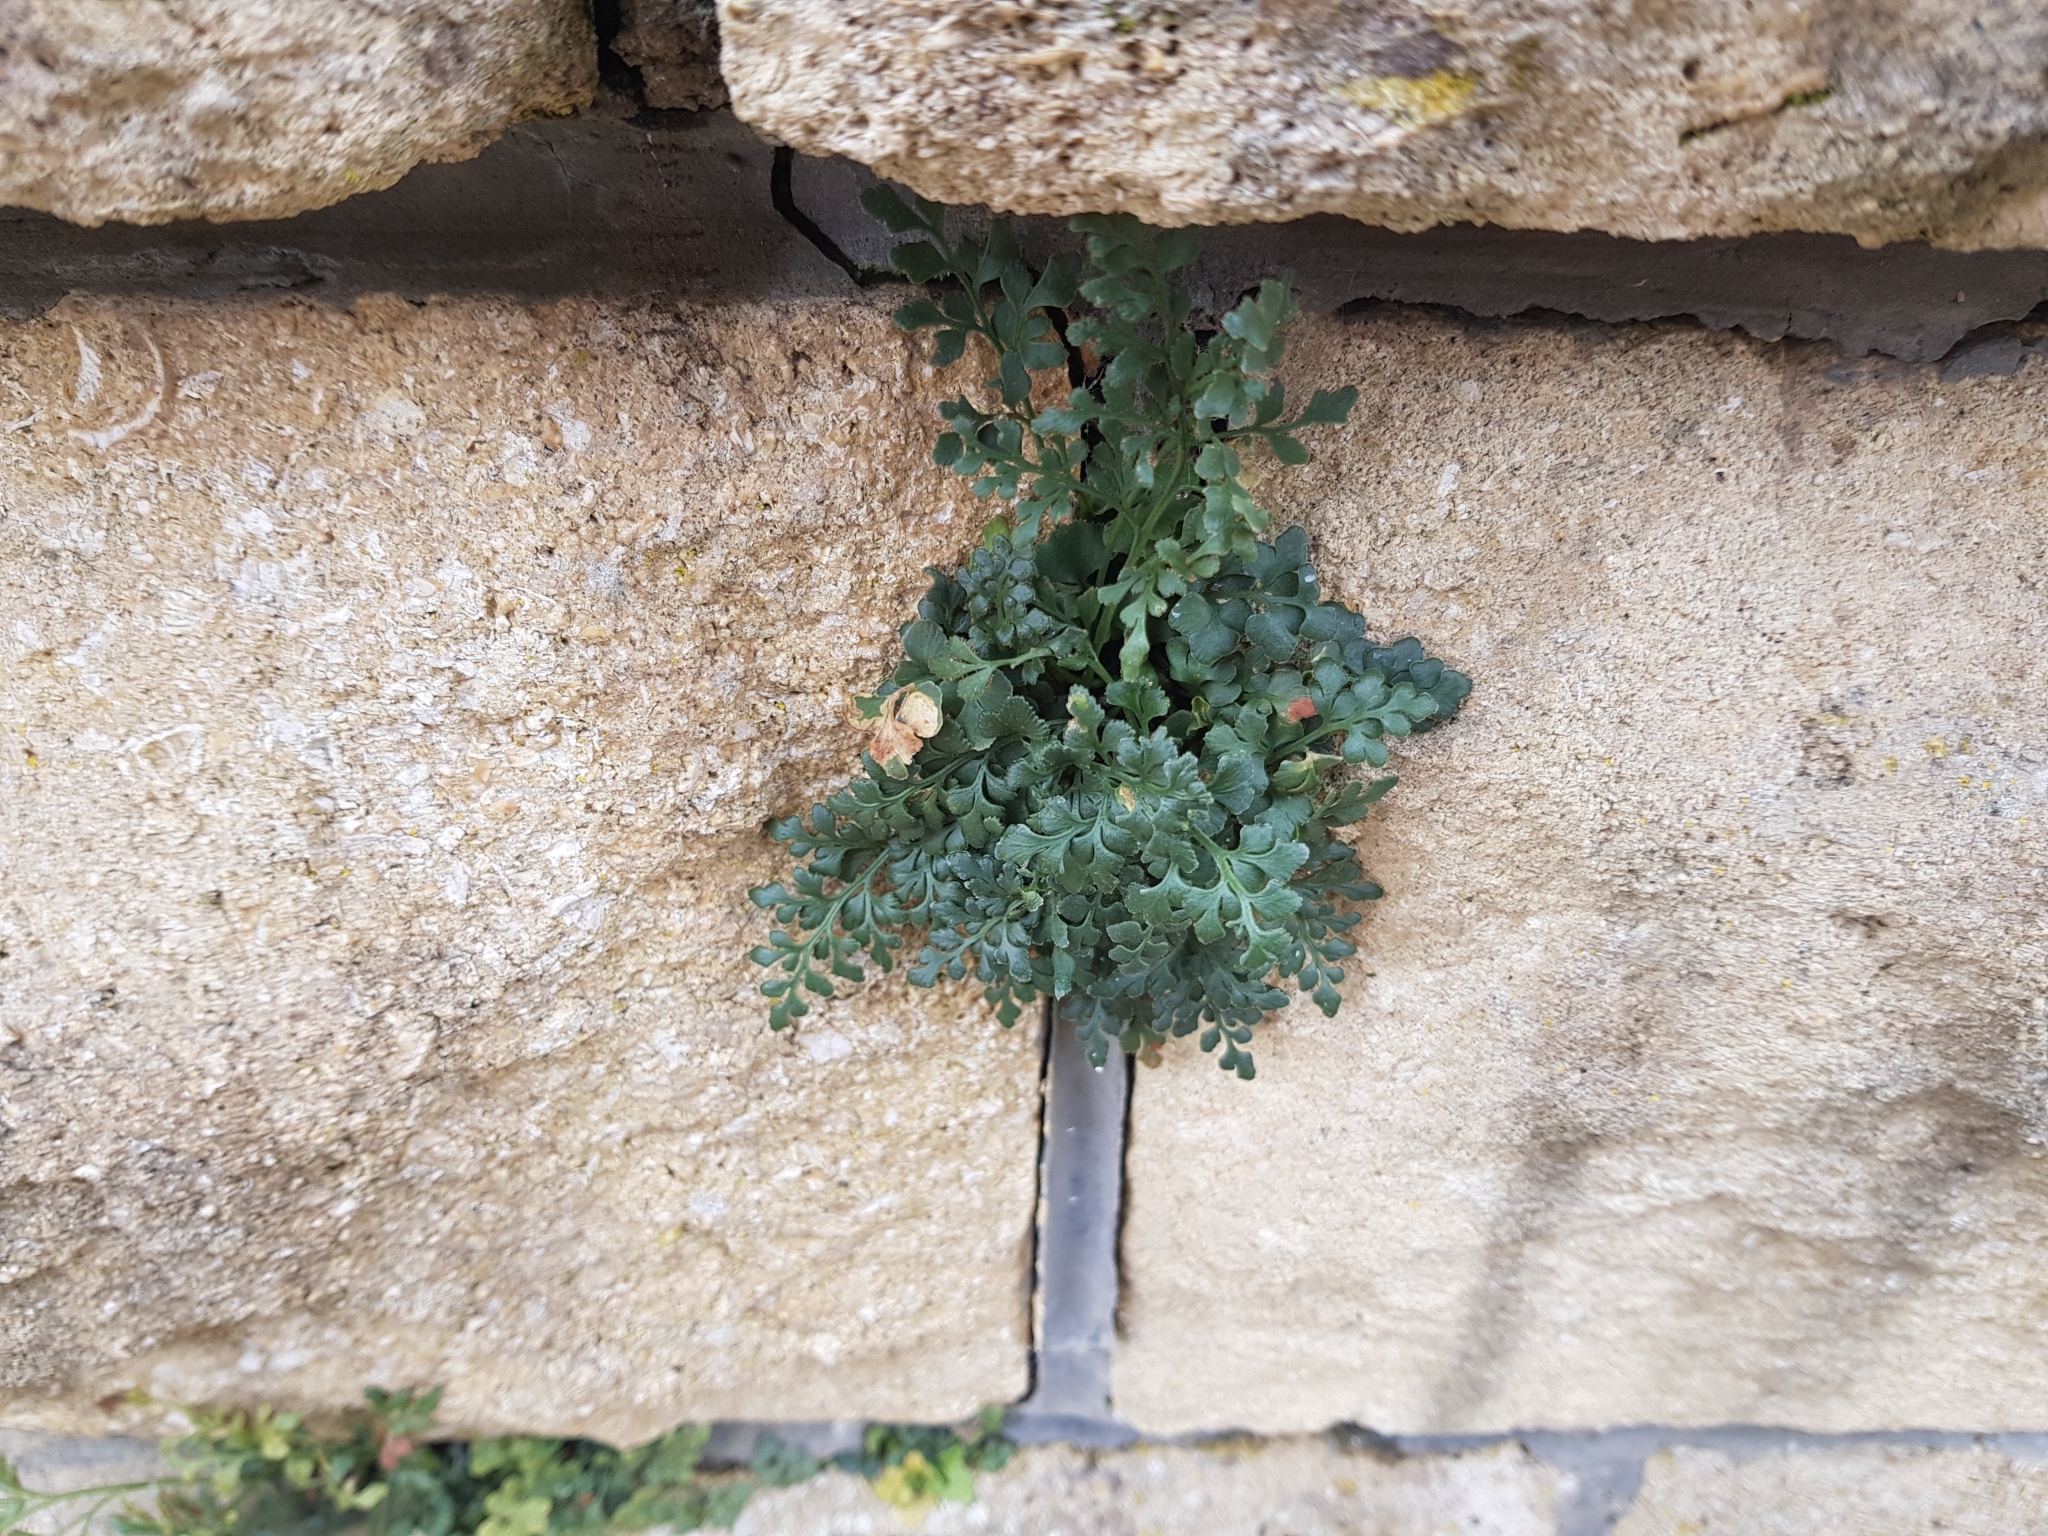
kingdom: Plantae
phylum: Tracheophyta
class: Polypodiopsida
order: Polypodiales
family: Aspleniaceae
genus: Asplenium
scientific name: Asplenium ruta-muraria
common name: Wall-rue
